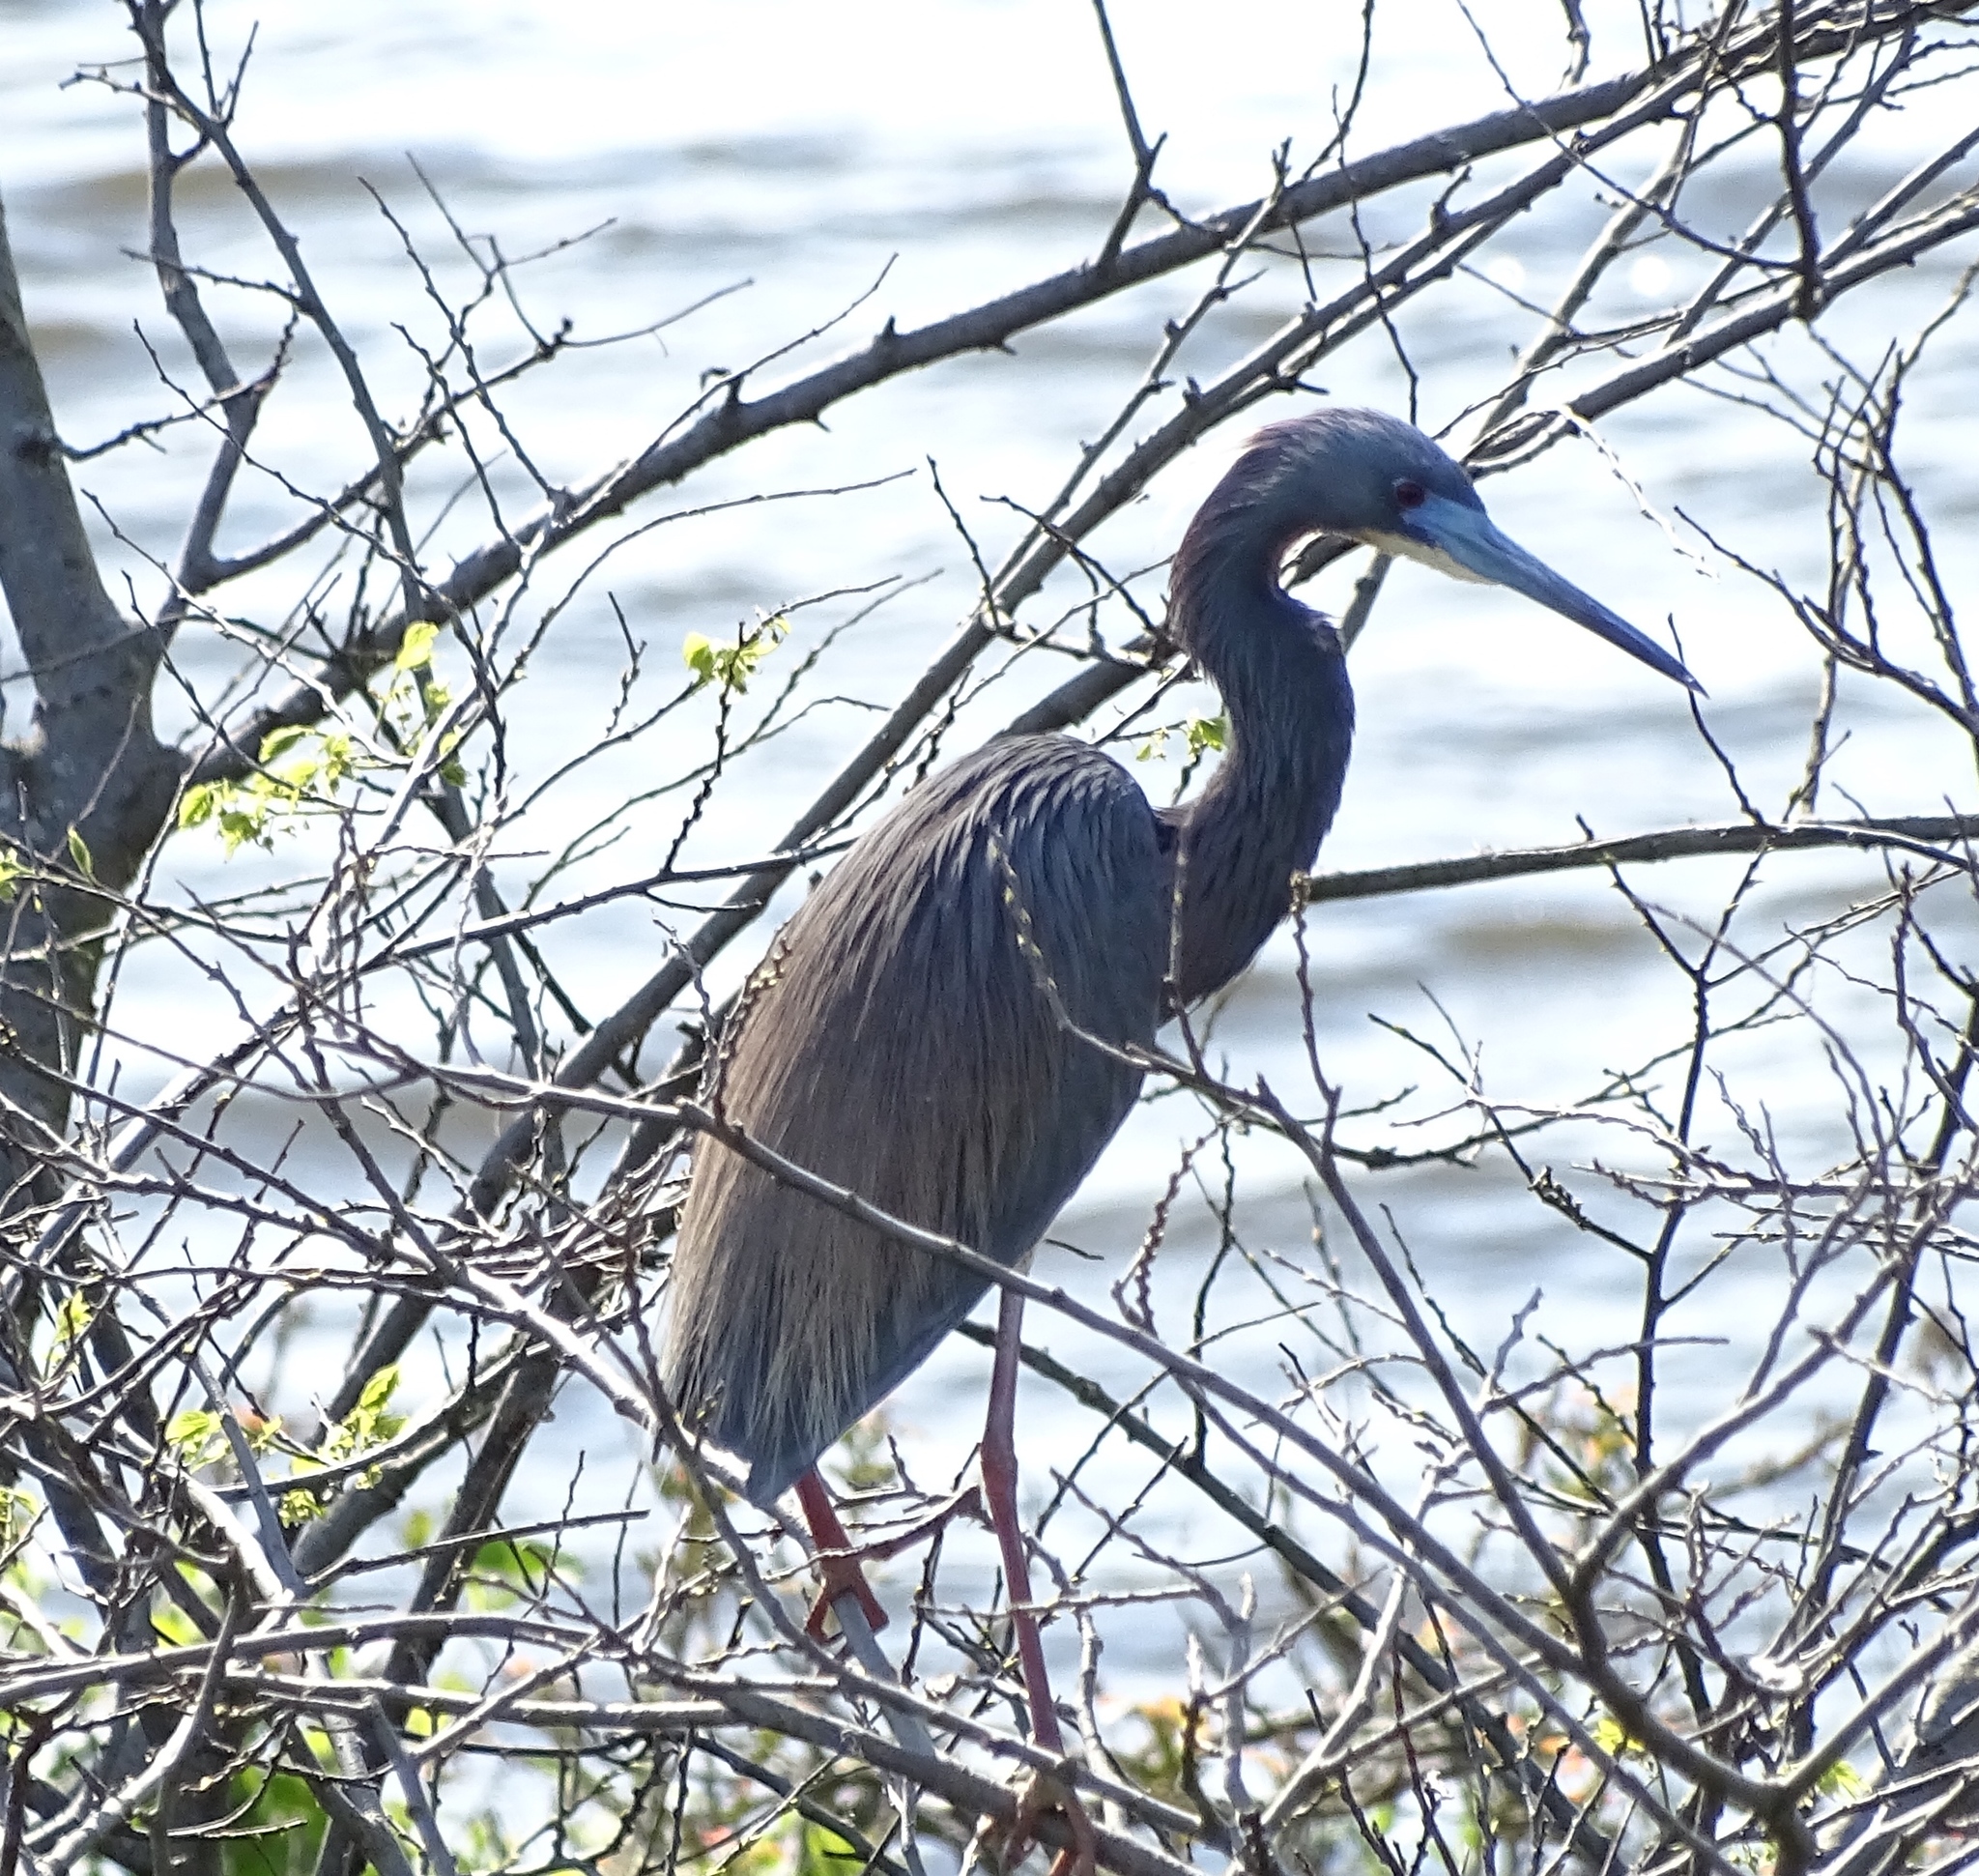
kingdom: Animalia
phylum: Chordata
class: Aves
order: Pelecaniformes
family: Ardeidae
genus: Egretta
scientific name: Egretta tricolor
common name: Tricolored heron
